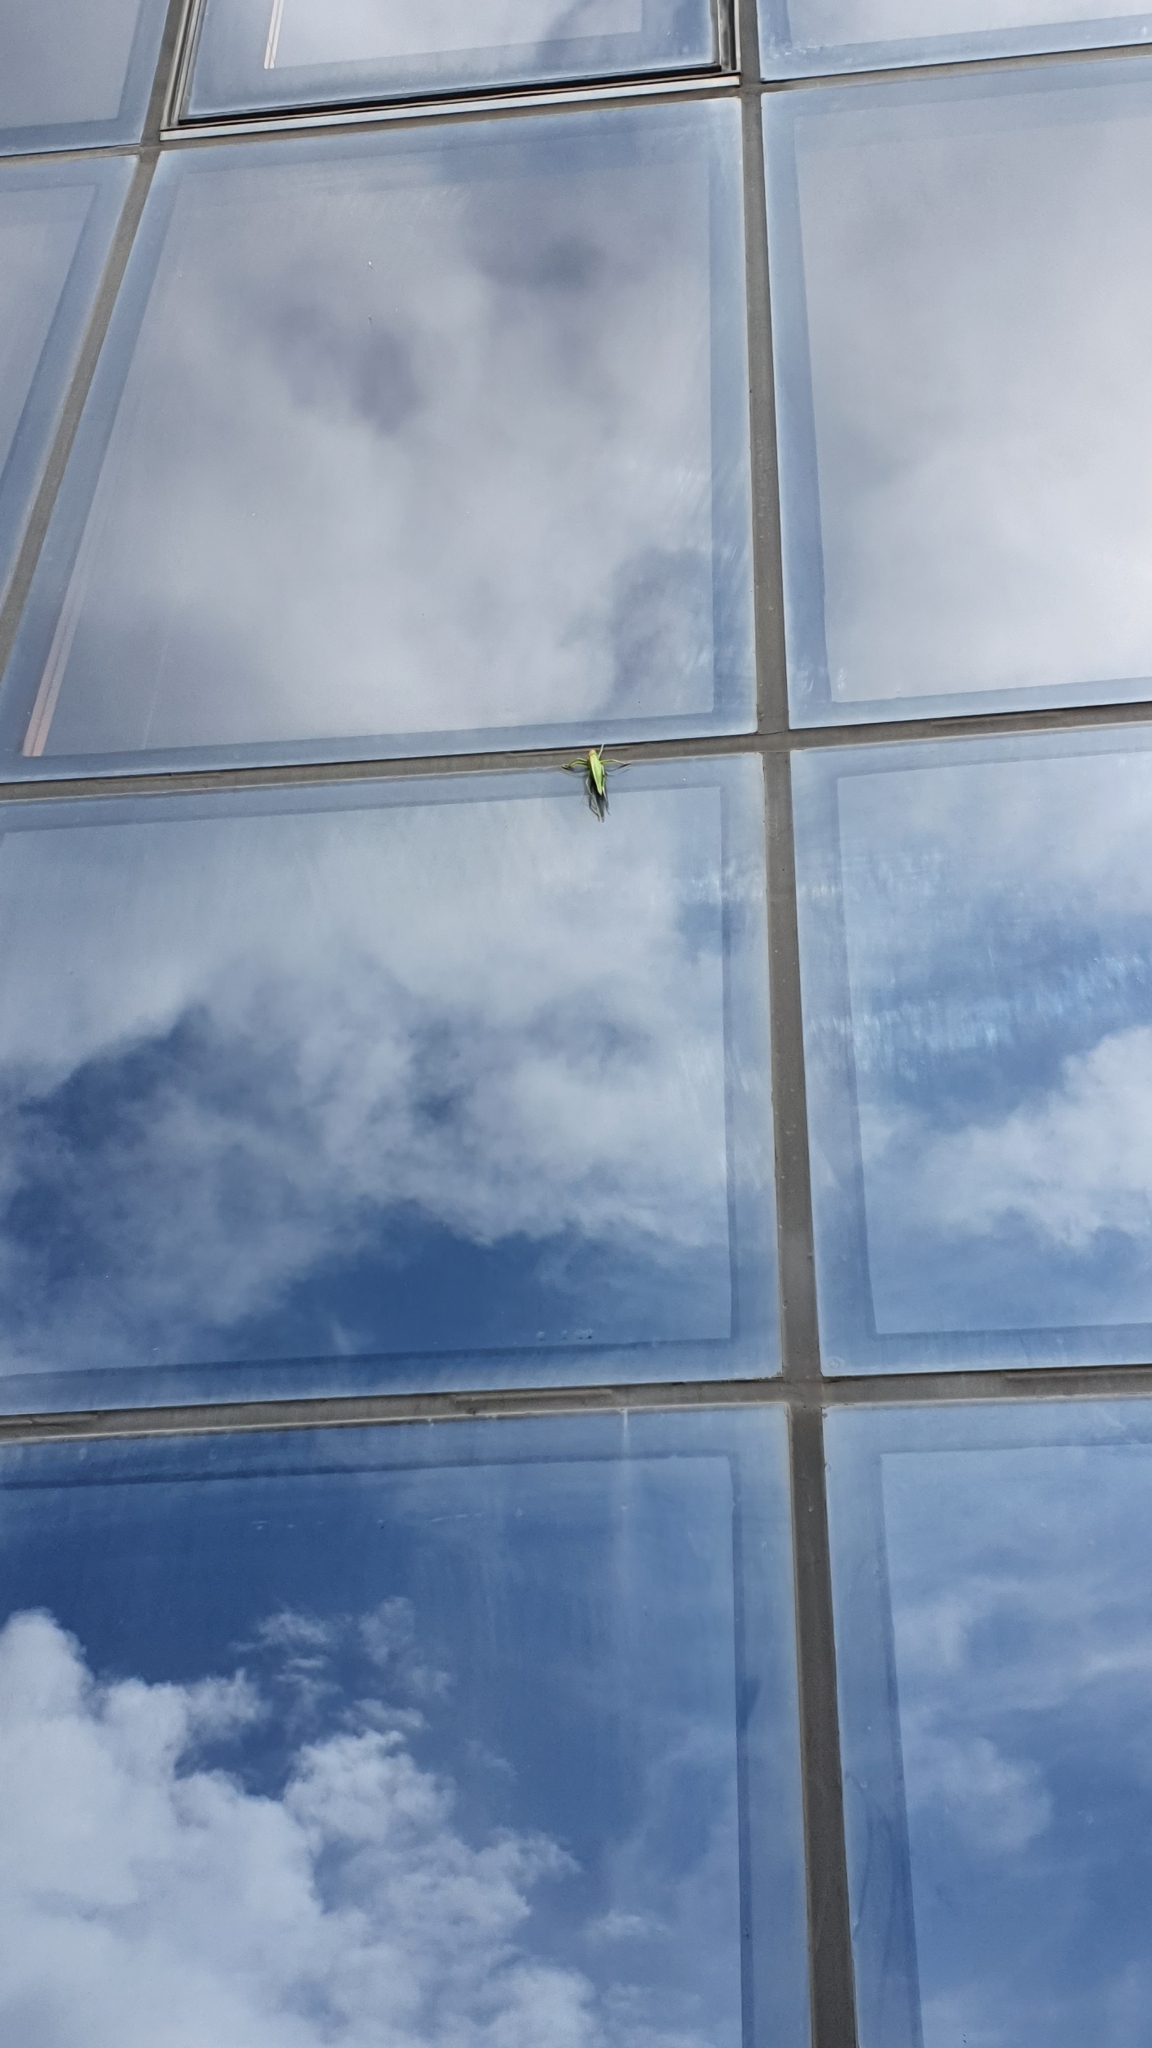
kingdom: Animalia
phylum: Arthropoda
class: Insecta
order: Orthoptera
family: Tettigoniidae
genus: Tettigonia
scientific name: Tettigonia viridissima
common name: Great green bush-cricket
